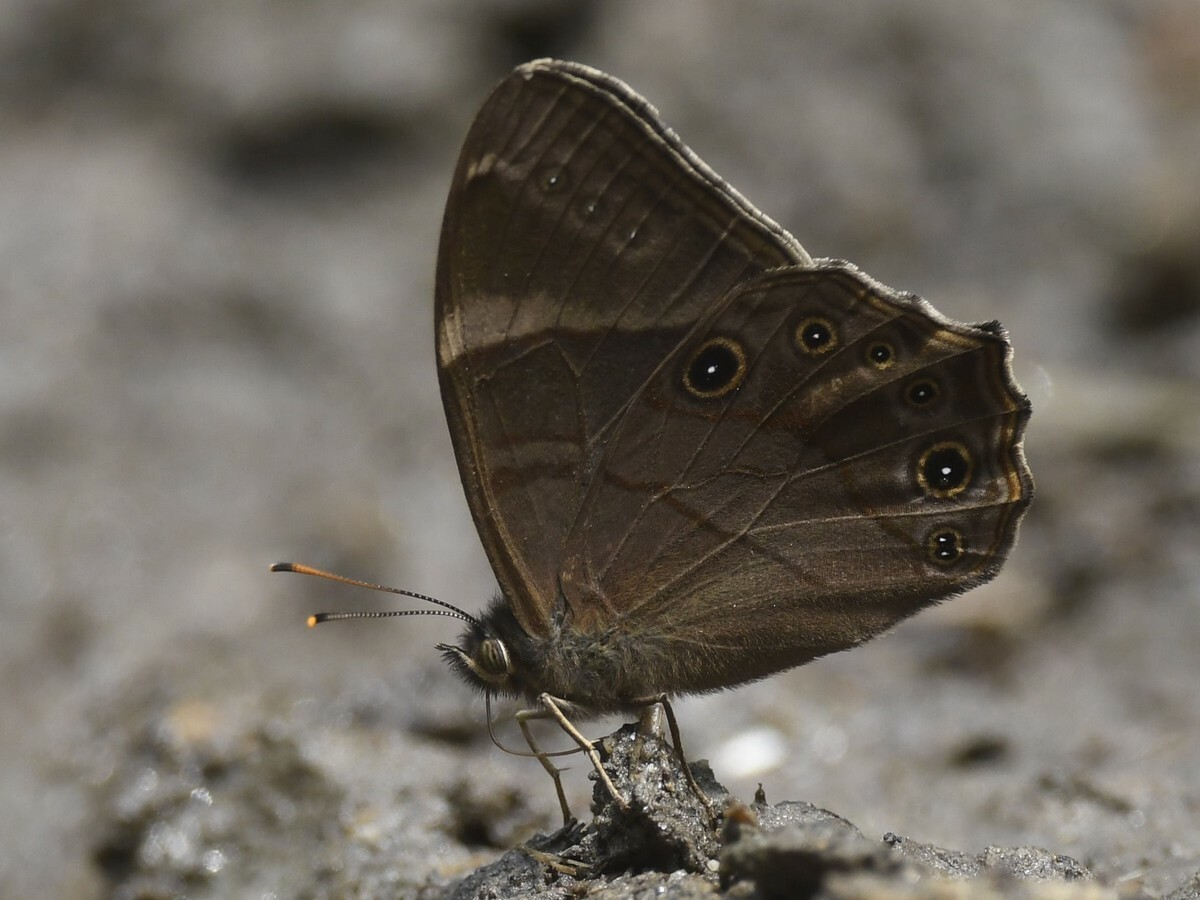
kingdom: Animalia
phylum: Arthropoda
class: Insecta
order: Lepidoptera
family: Nymphalidae
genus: Lethe
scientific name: Lethe
